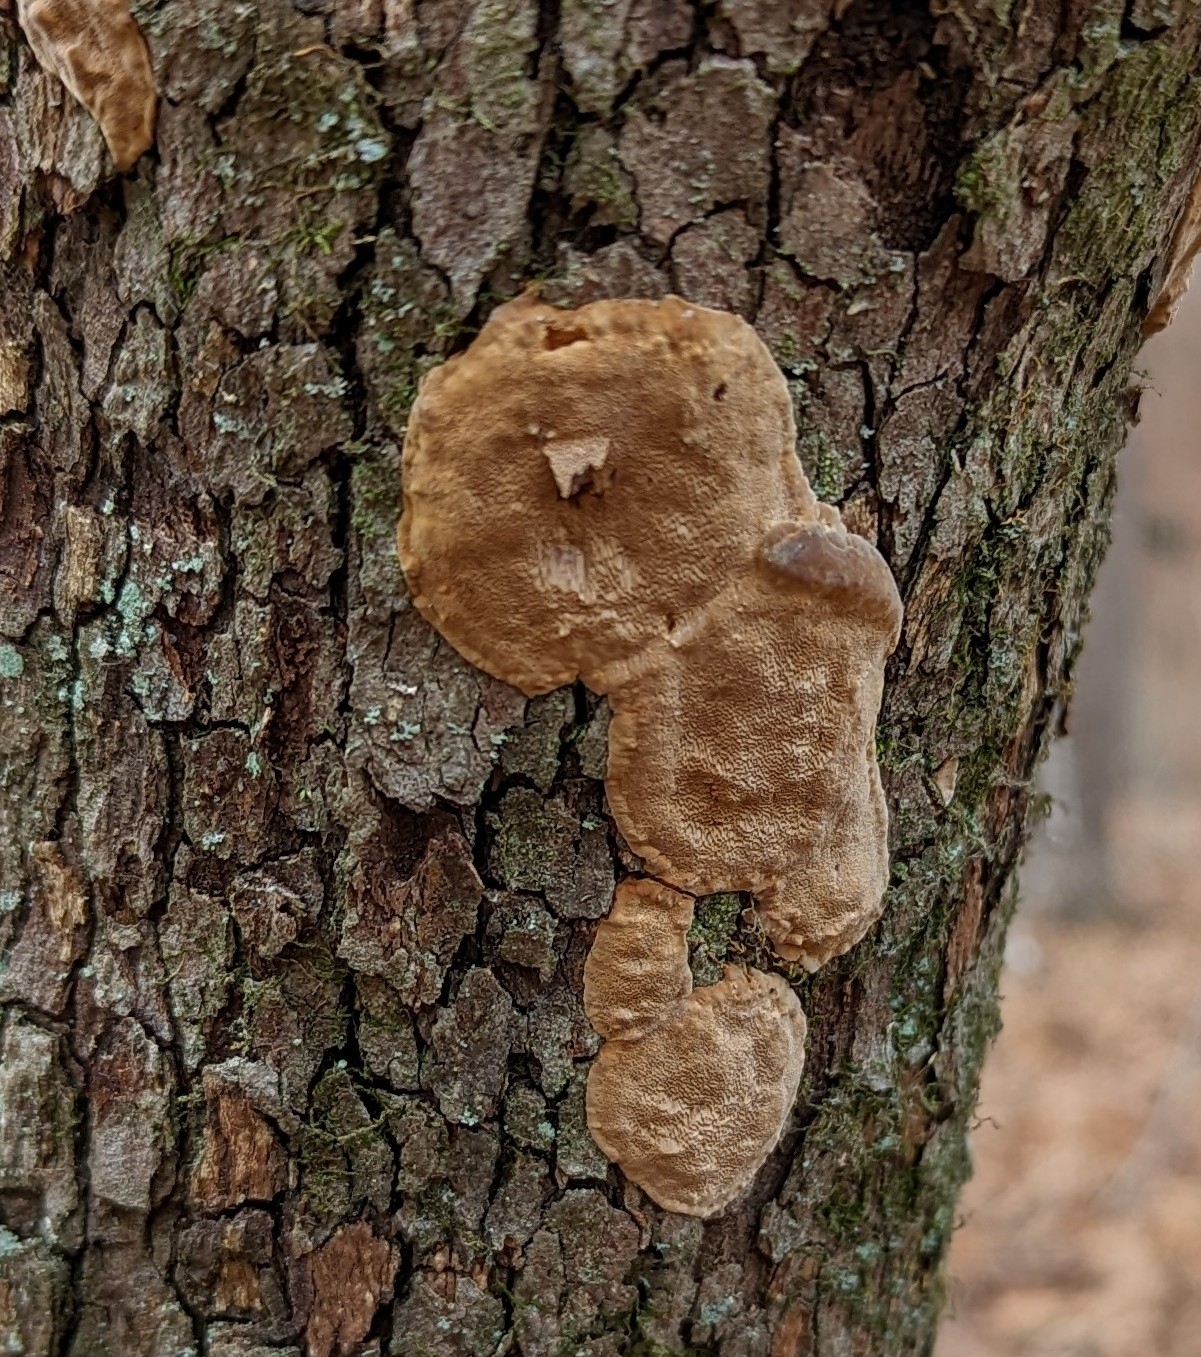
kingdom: Fungi
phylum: Basidiomycota
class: Agaricomycetes
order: Hymenochaetales
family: Hymenochaetaceae
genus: Fomitiporia
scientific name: Fomitiporia punctata
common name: Elbowpatch crust
